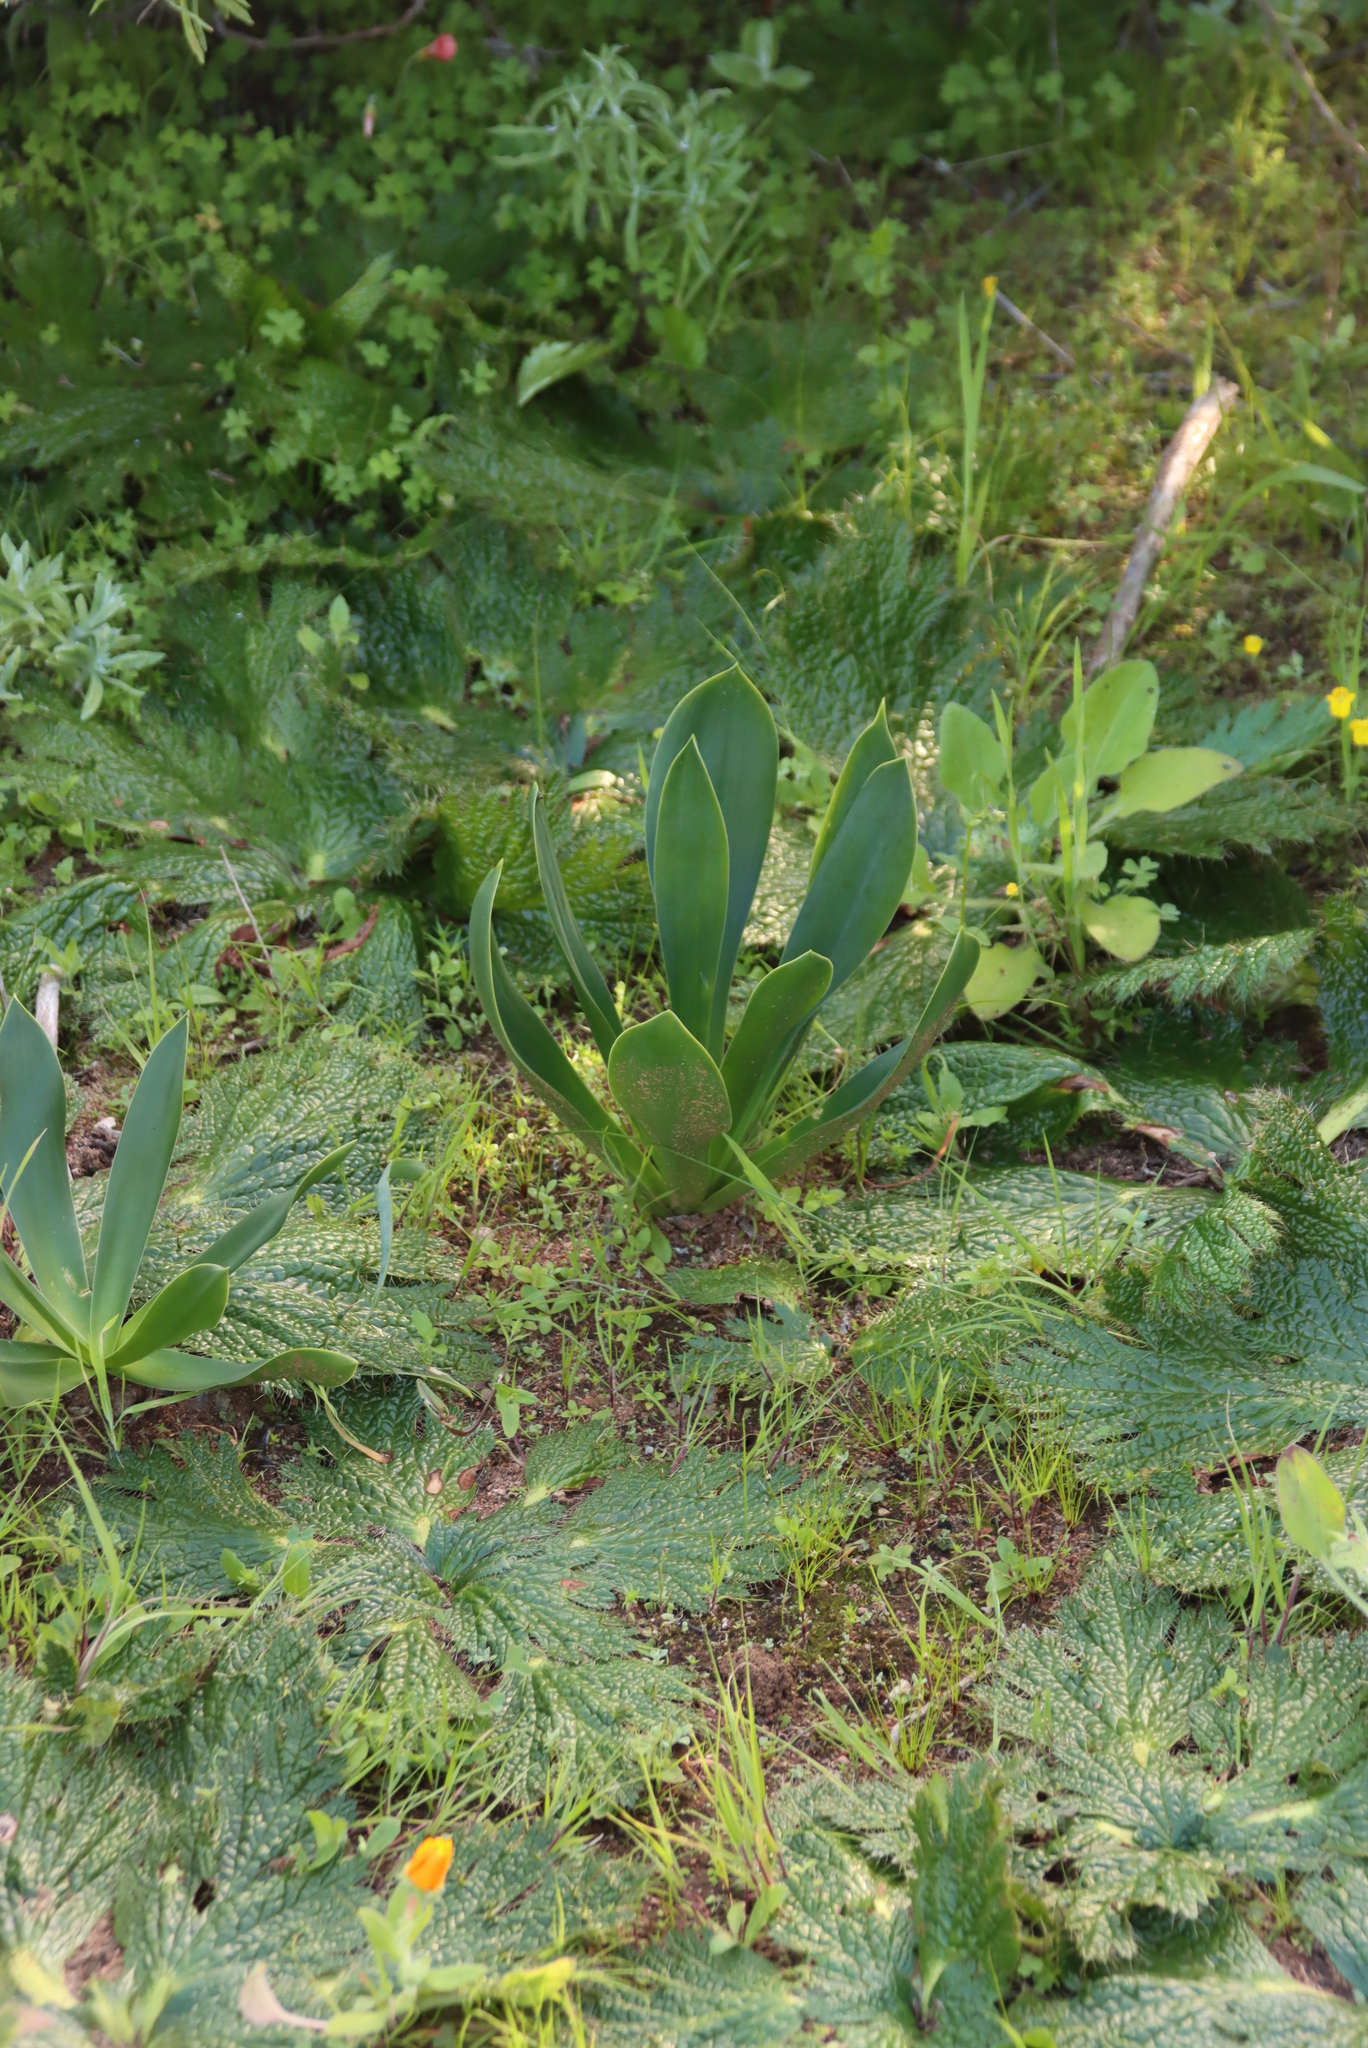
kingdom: Plantae
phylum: Tracheophyta
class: Liliopsida
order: Asparagales
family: Asparagaceae
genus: Drimia
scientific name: Drimia capensis
